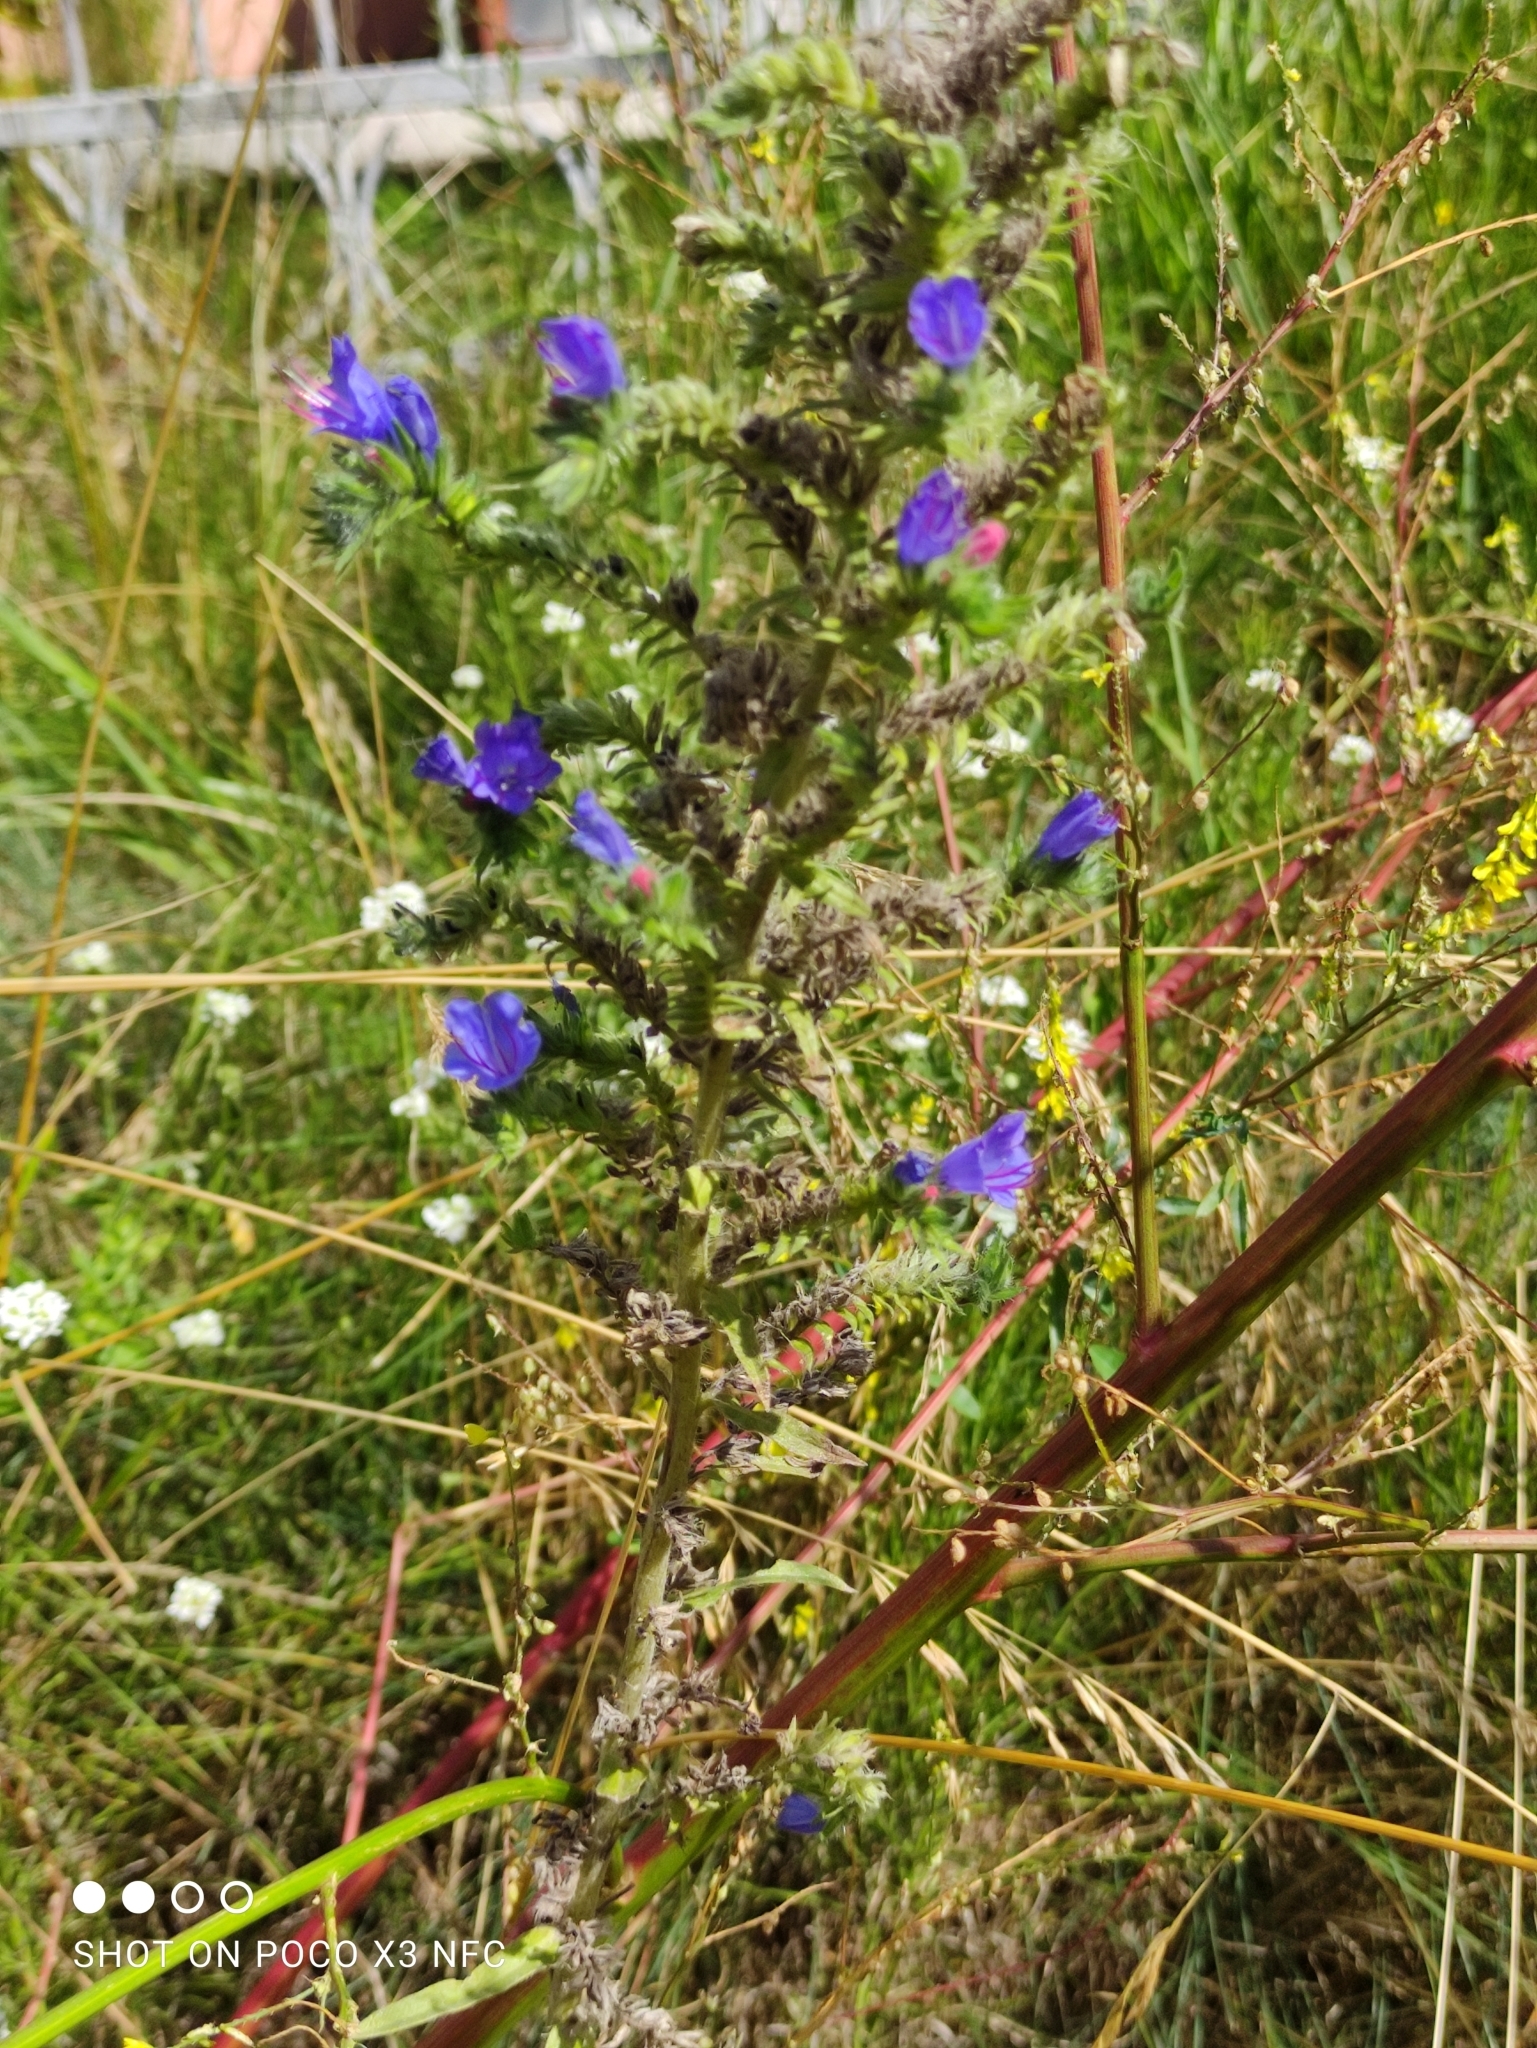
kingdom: Plantae
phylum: Tracheophyta
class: Magnoliopsida
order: Boraginales
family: Boraginaceae
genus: Echium
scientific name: Echium vulgare
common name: Common viper's bugloss
